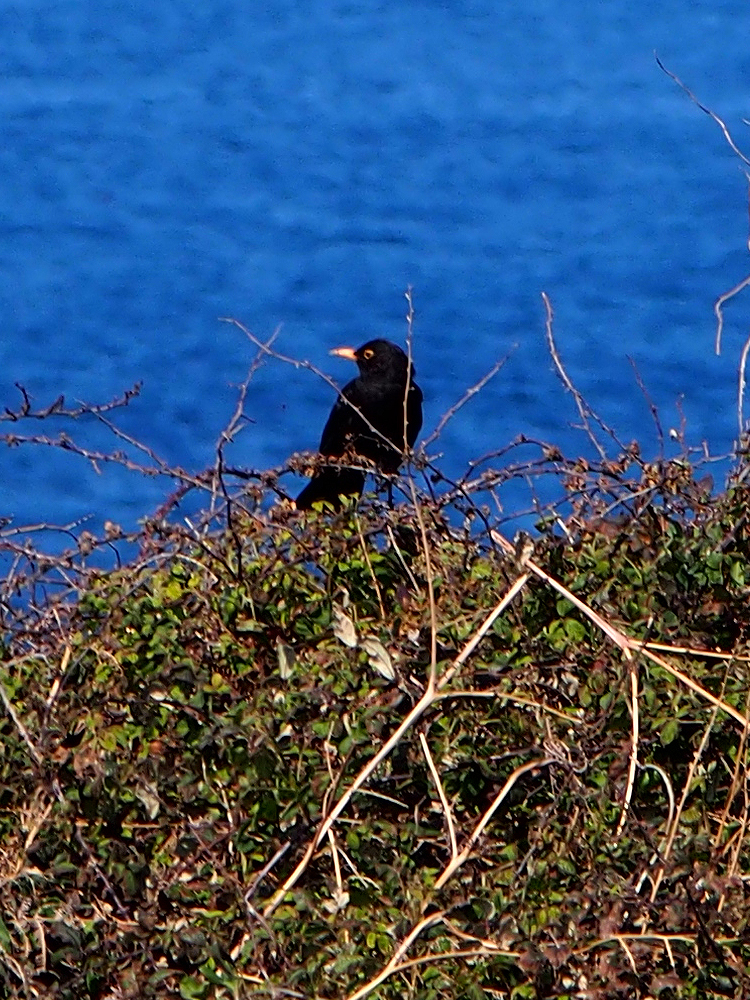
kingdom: Animalia
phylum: Chordata
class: Aves
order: Passeriformes
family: Turdidae
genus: Turdus
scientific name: Turdus merula
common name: Common blackbird
